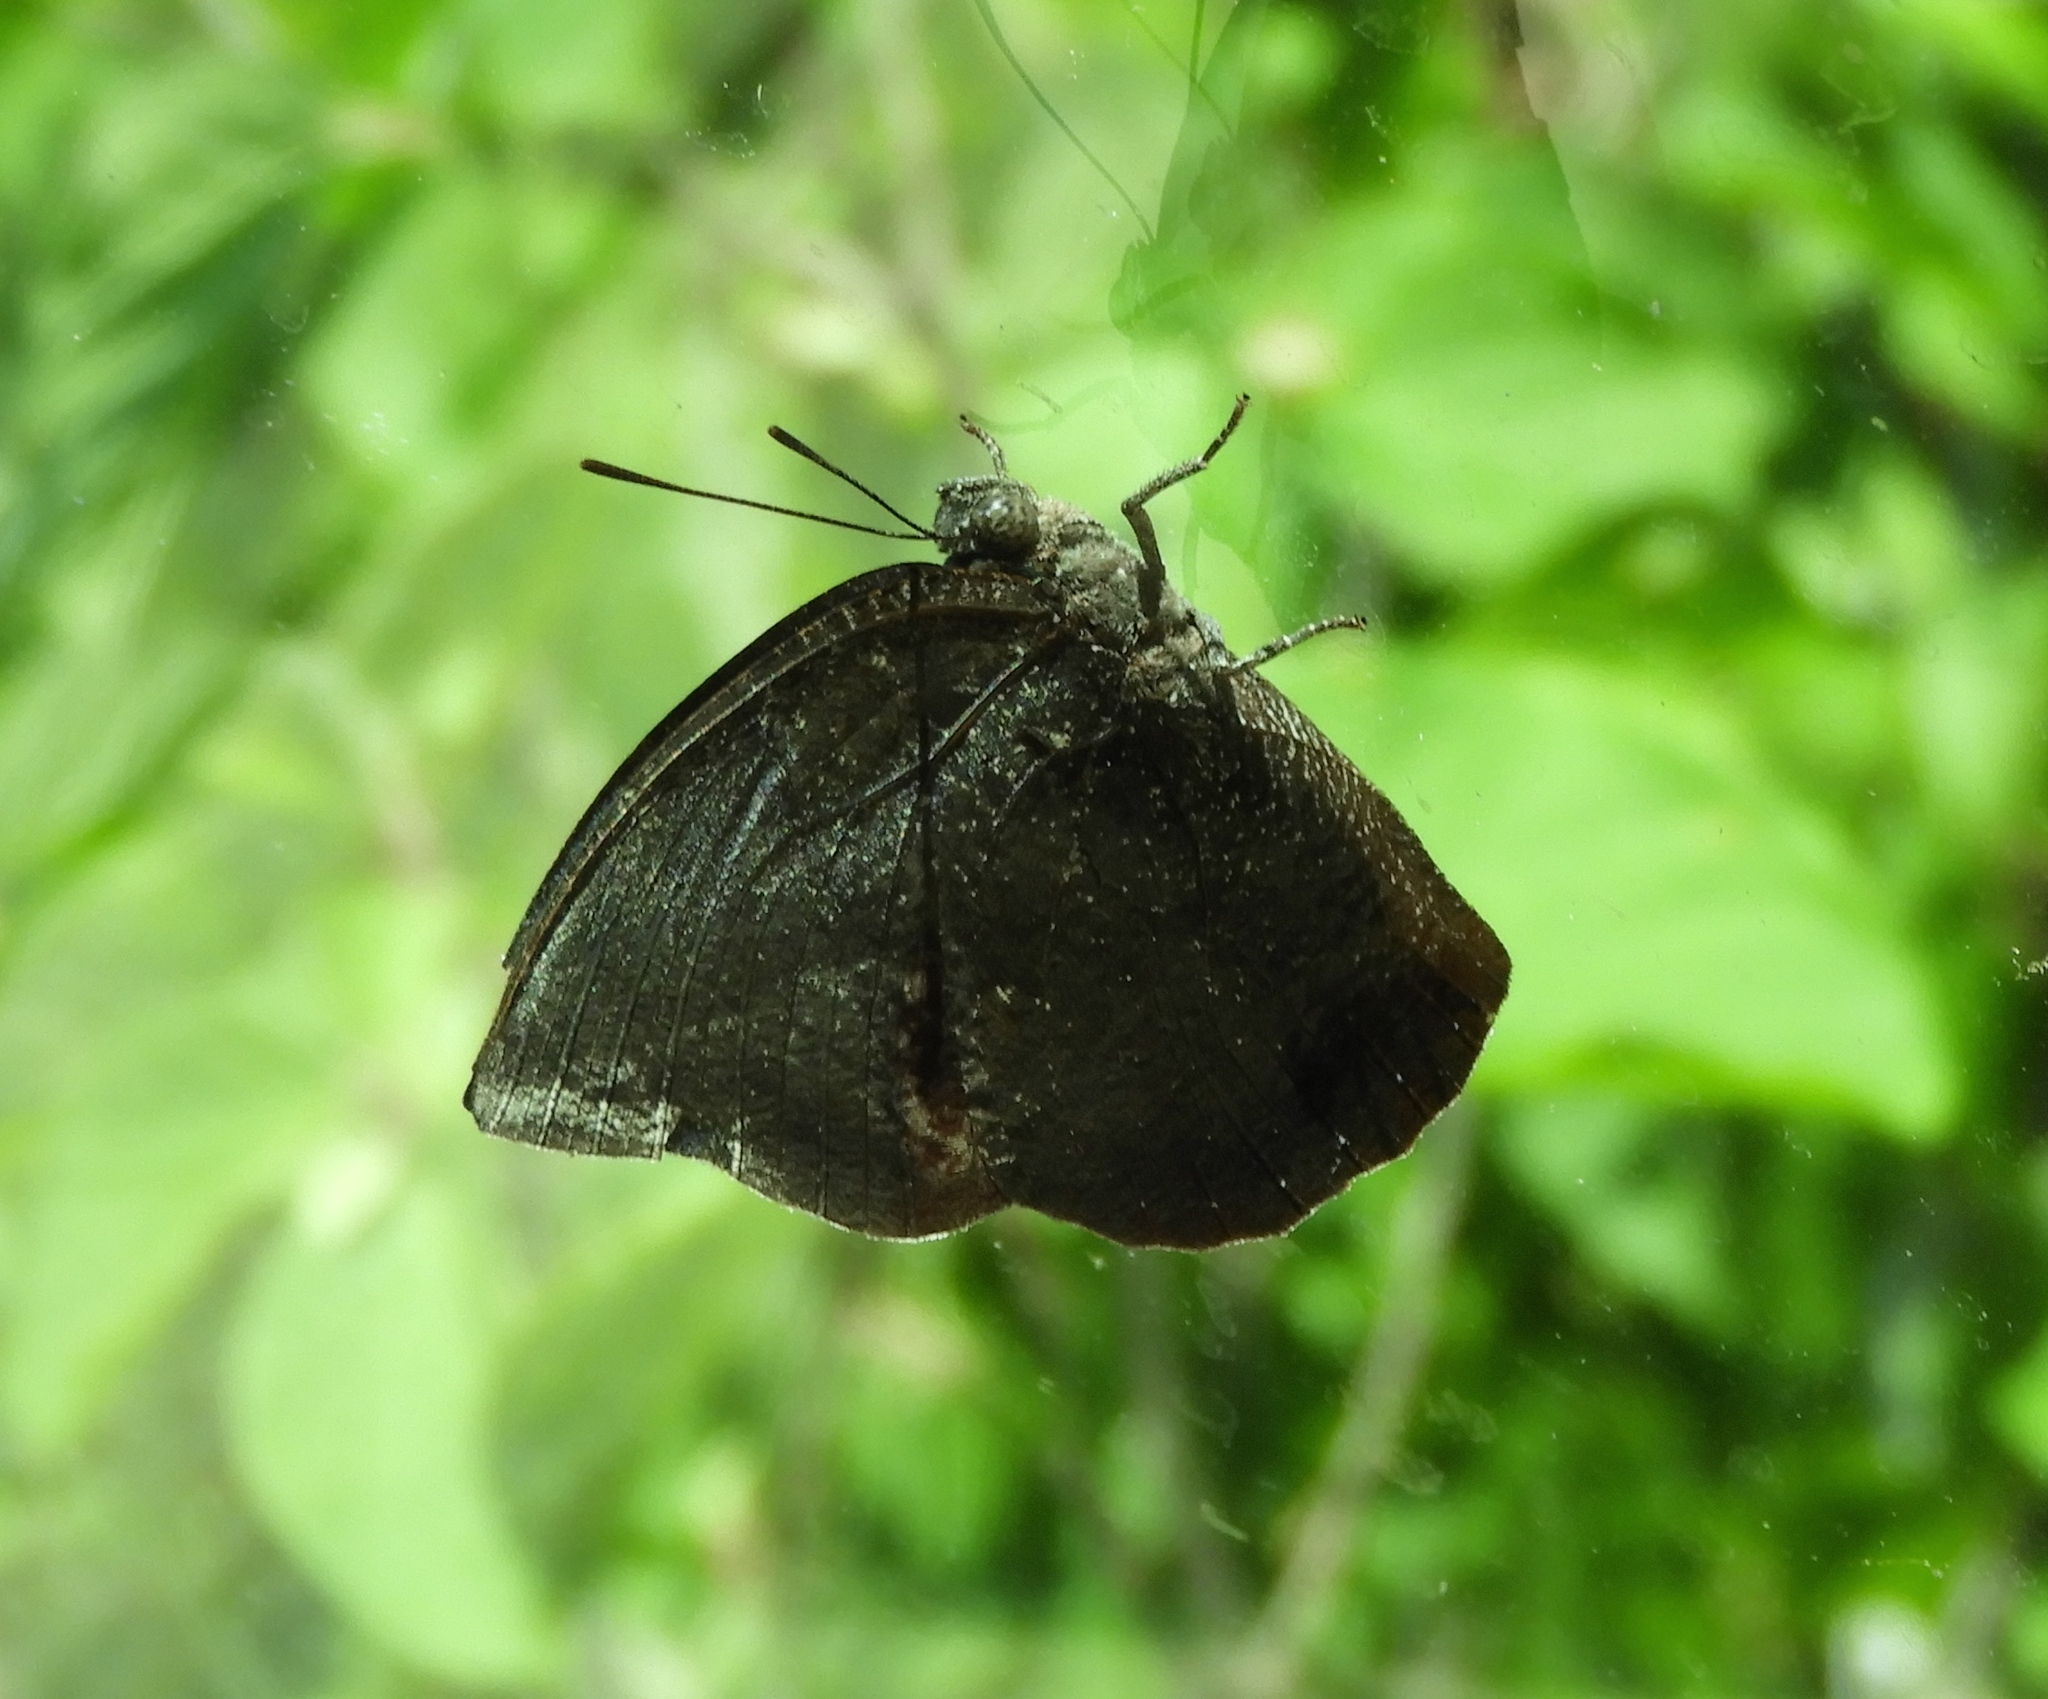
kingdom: Animalia
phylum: Arthropoda
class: Insecta
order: Lepidoptera
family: Nymphalidae
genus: Memphis
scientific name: Memphis forreri
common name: Forrer's leafwing
